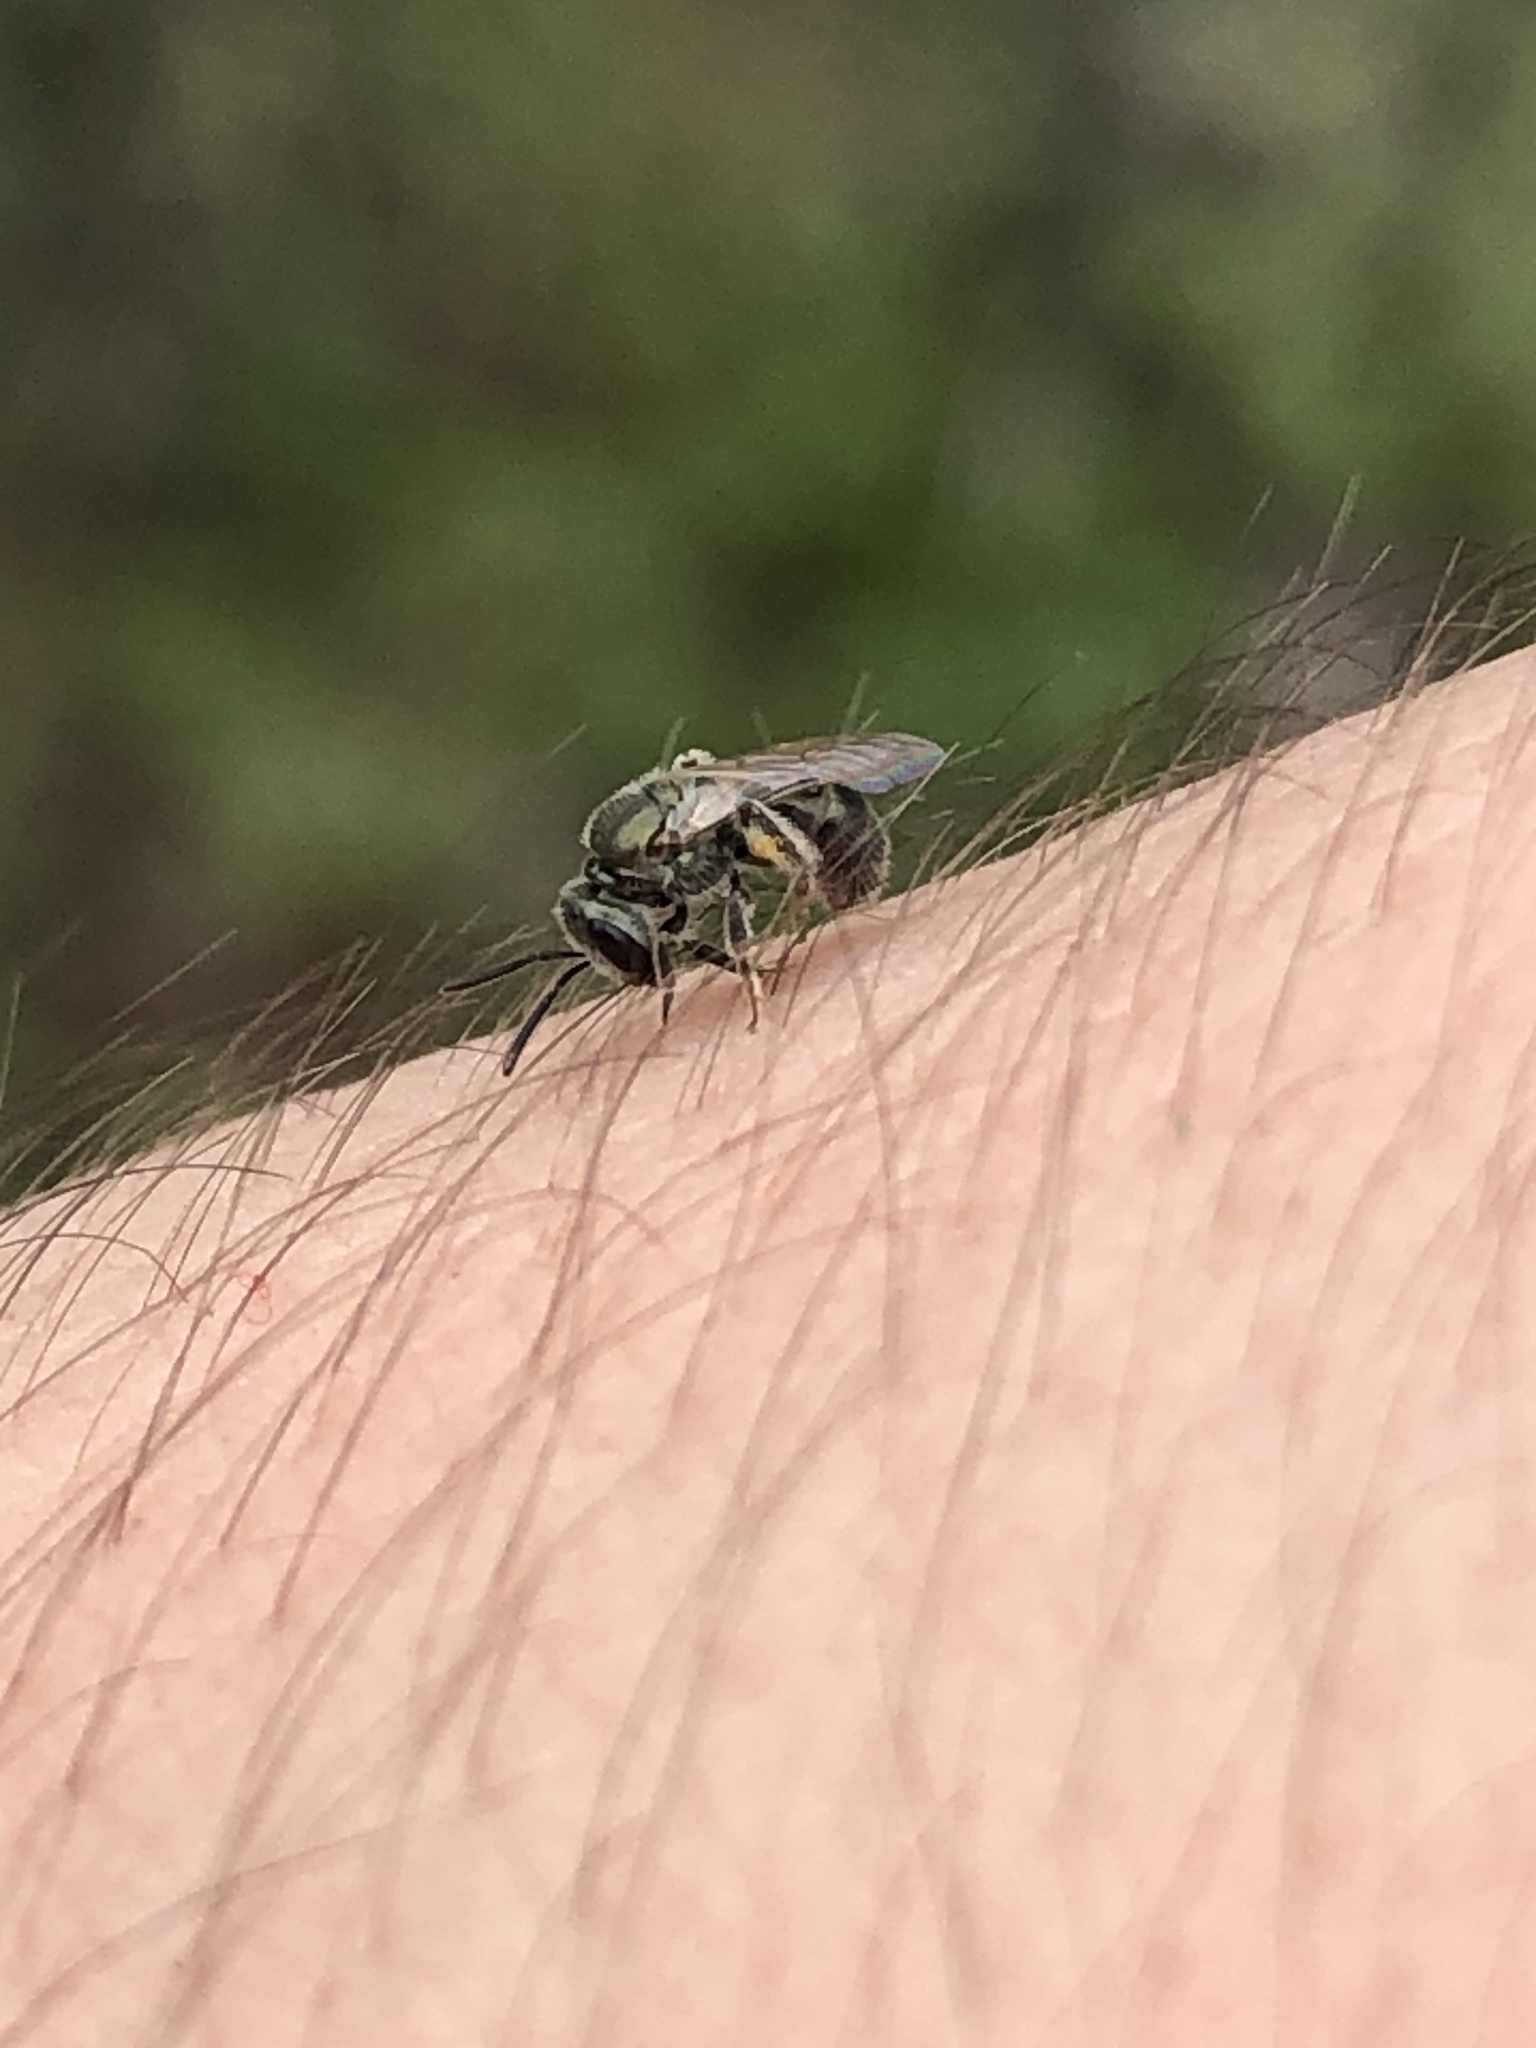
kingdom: Animalia
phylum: Arthropoda
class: Insecta
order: Hymenoptera
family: Halictidae
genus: Dialictus
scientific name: Dialictus
